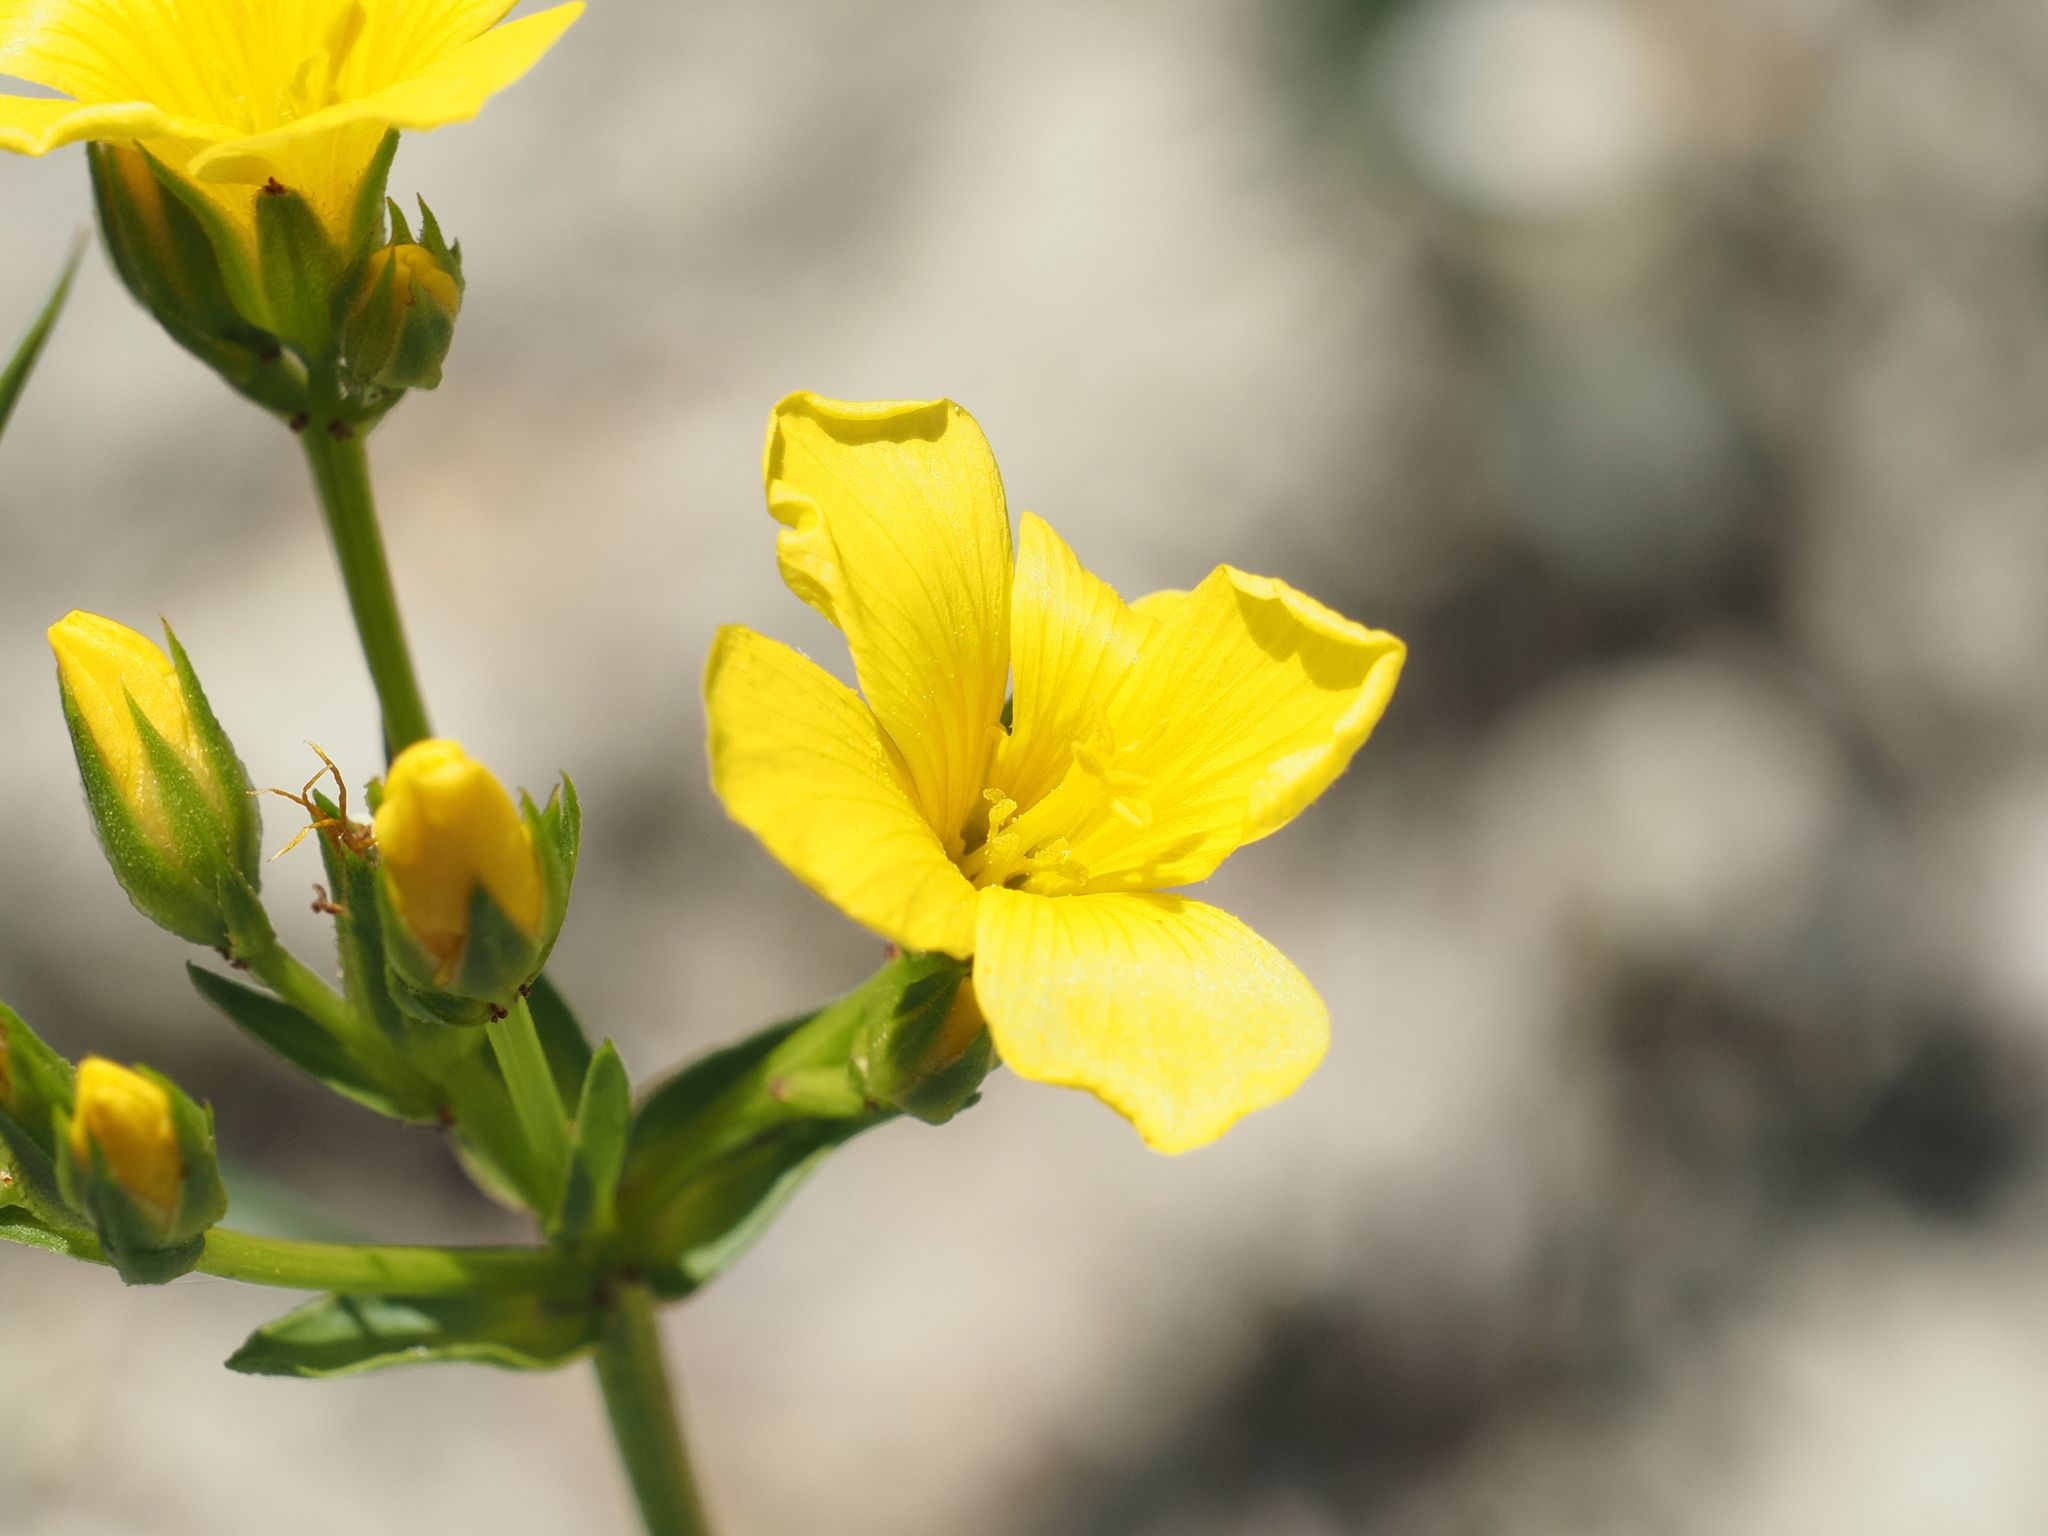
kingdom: Plantae
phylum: Tracheophyta
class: Magnoliopsida
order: Malpighiales
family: Linaceae
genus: Linum
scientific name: Linum flavum
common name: Yellow flax
